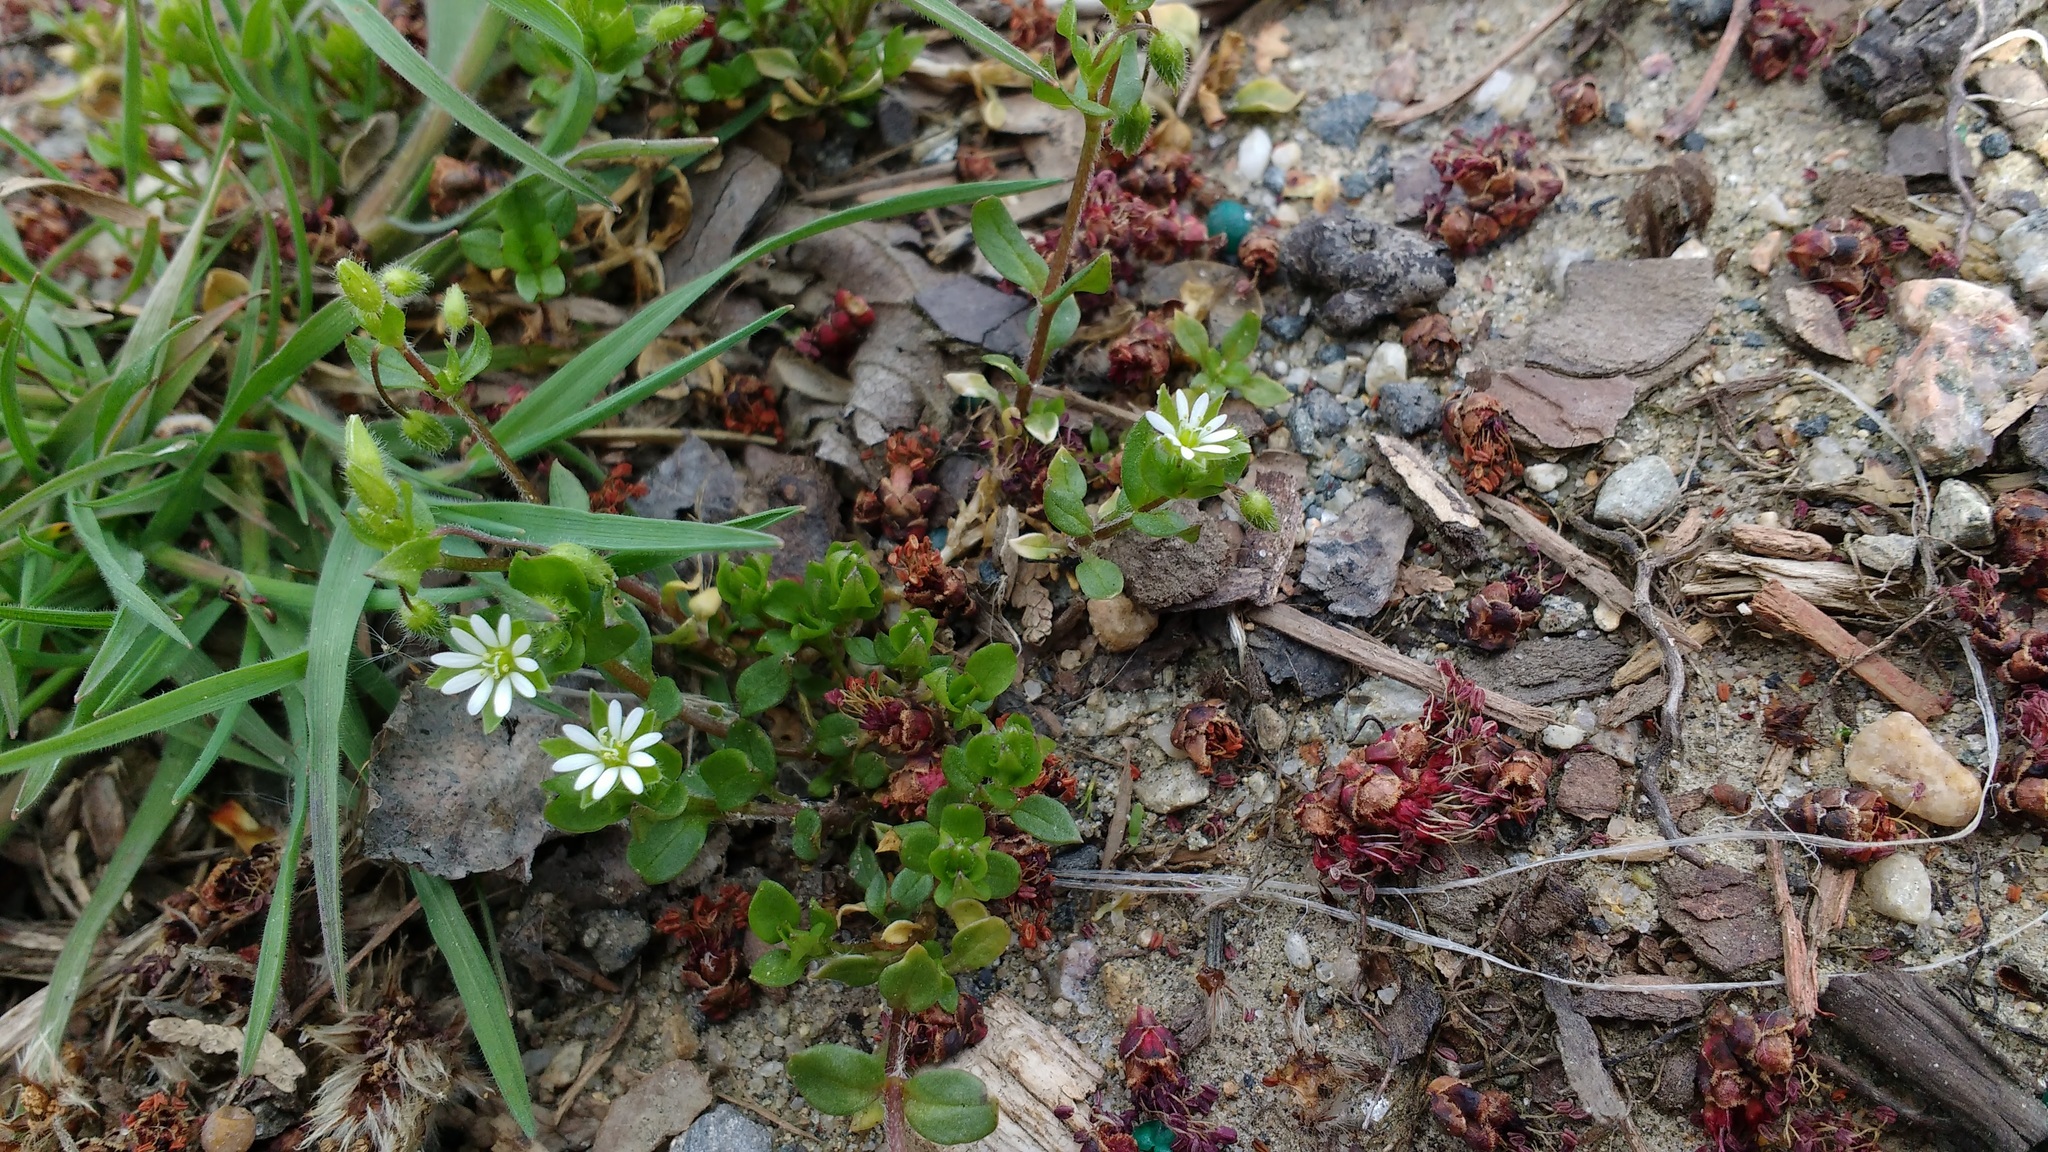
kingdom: Plantae
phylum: Tracheophyta
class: Magnoliopsida
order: Caryophyllales
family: Caryophyllaceae
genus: Stellaria
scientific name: Stellaria media
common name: Common chickweed
